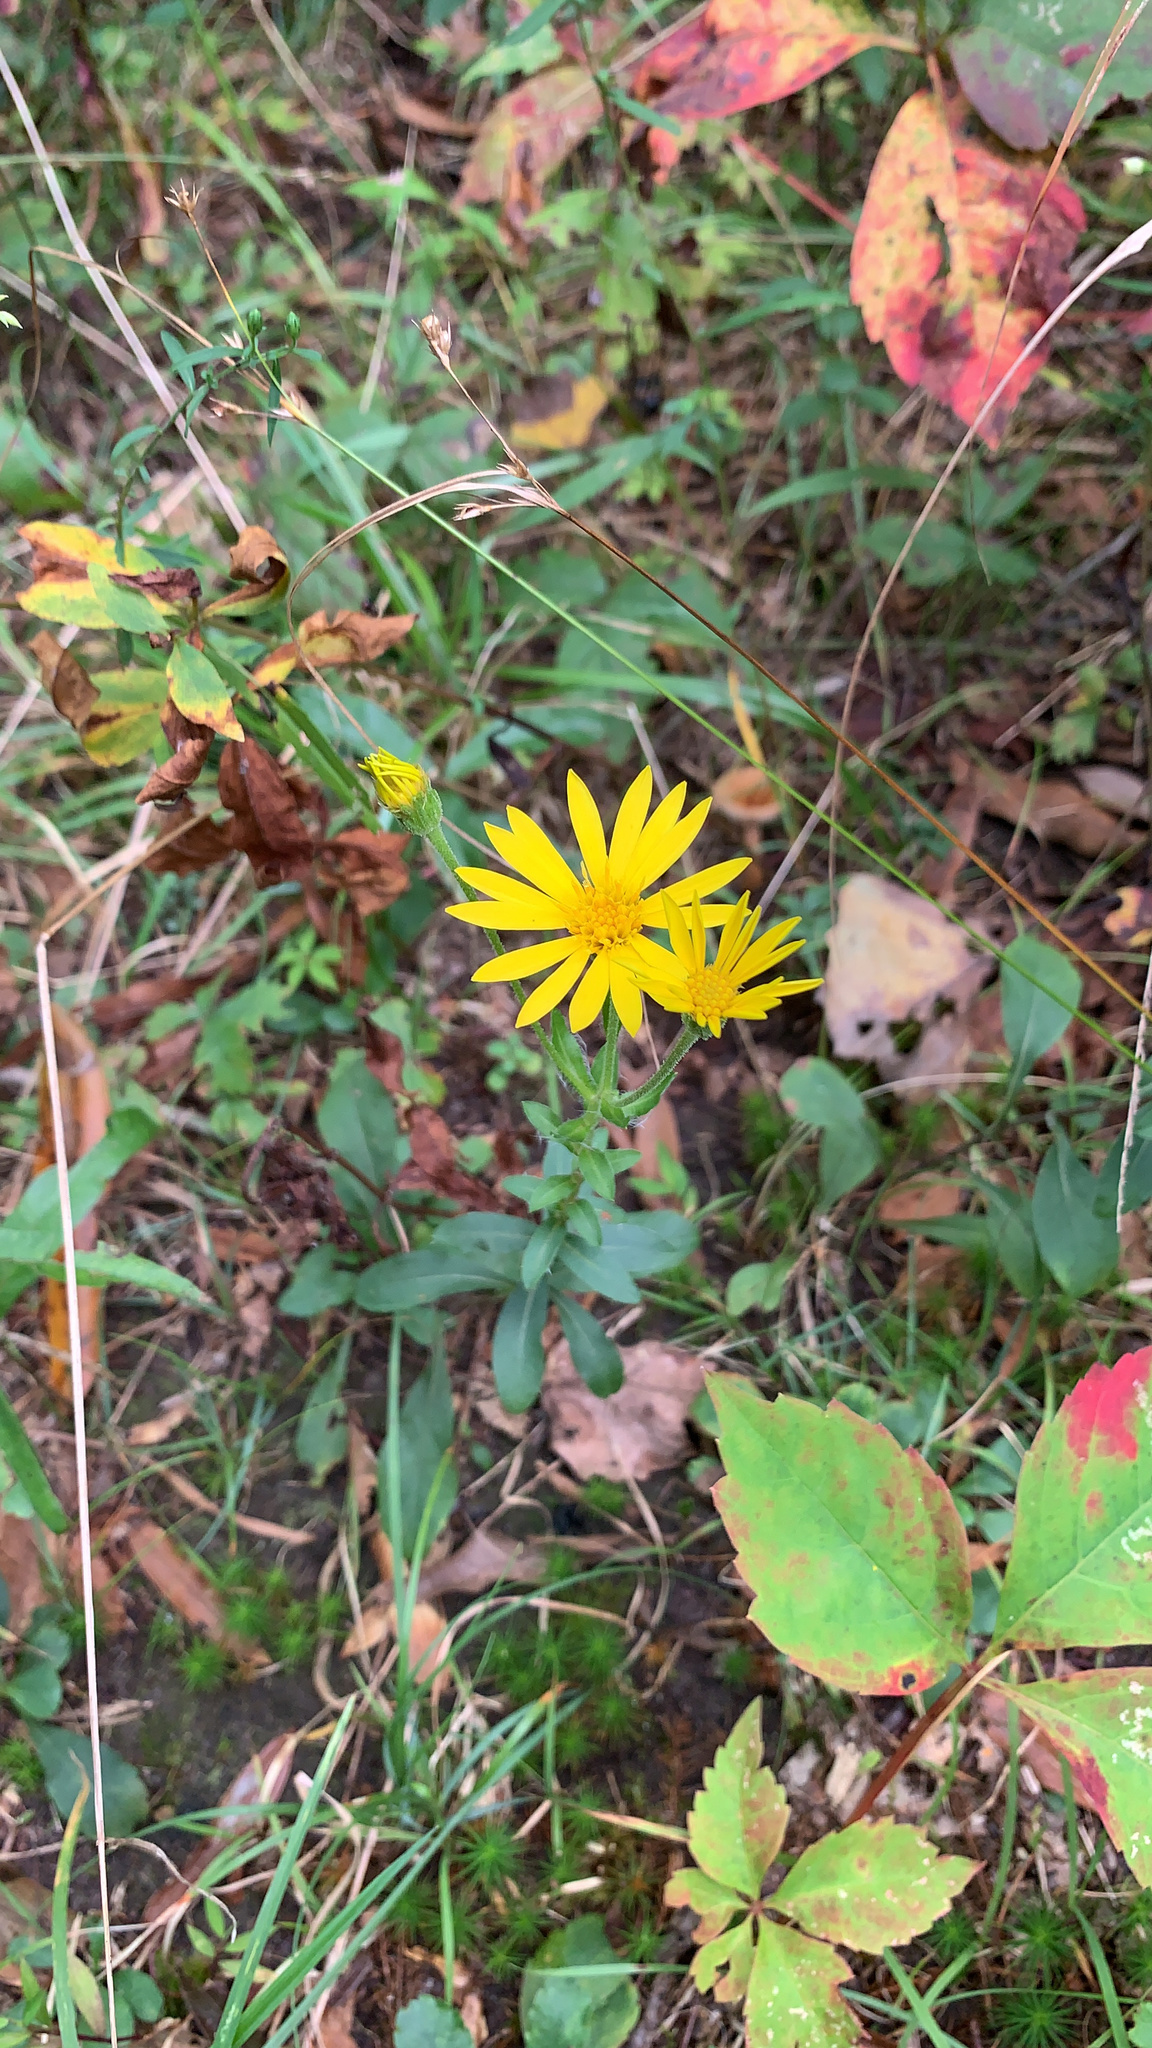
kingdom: Plantae
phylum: Tracheophyta
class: Magnoliopsida
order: Asterales
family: Asteraceae
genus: Chrysopsis
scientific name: Chrysopsis mariana
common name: Maryland golden-aster
